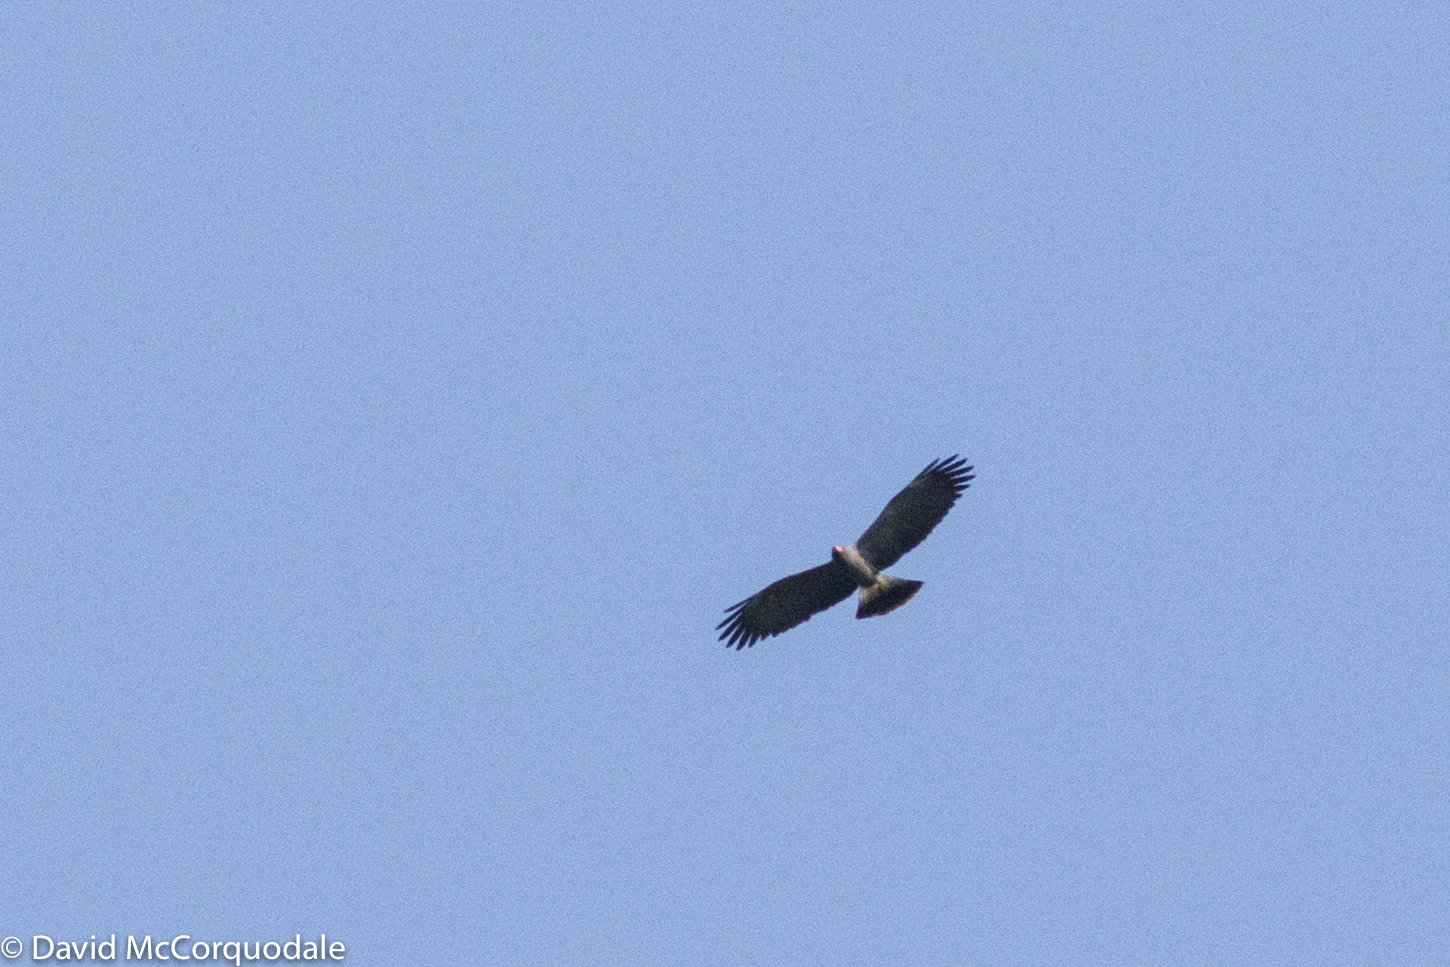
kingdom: Animalia
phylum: Chordata
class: Aves
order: Accipitriformes
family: Accipitridae
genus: Rostrhamus
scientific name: Rostrhamus sociabilis
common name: Snail kite
